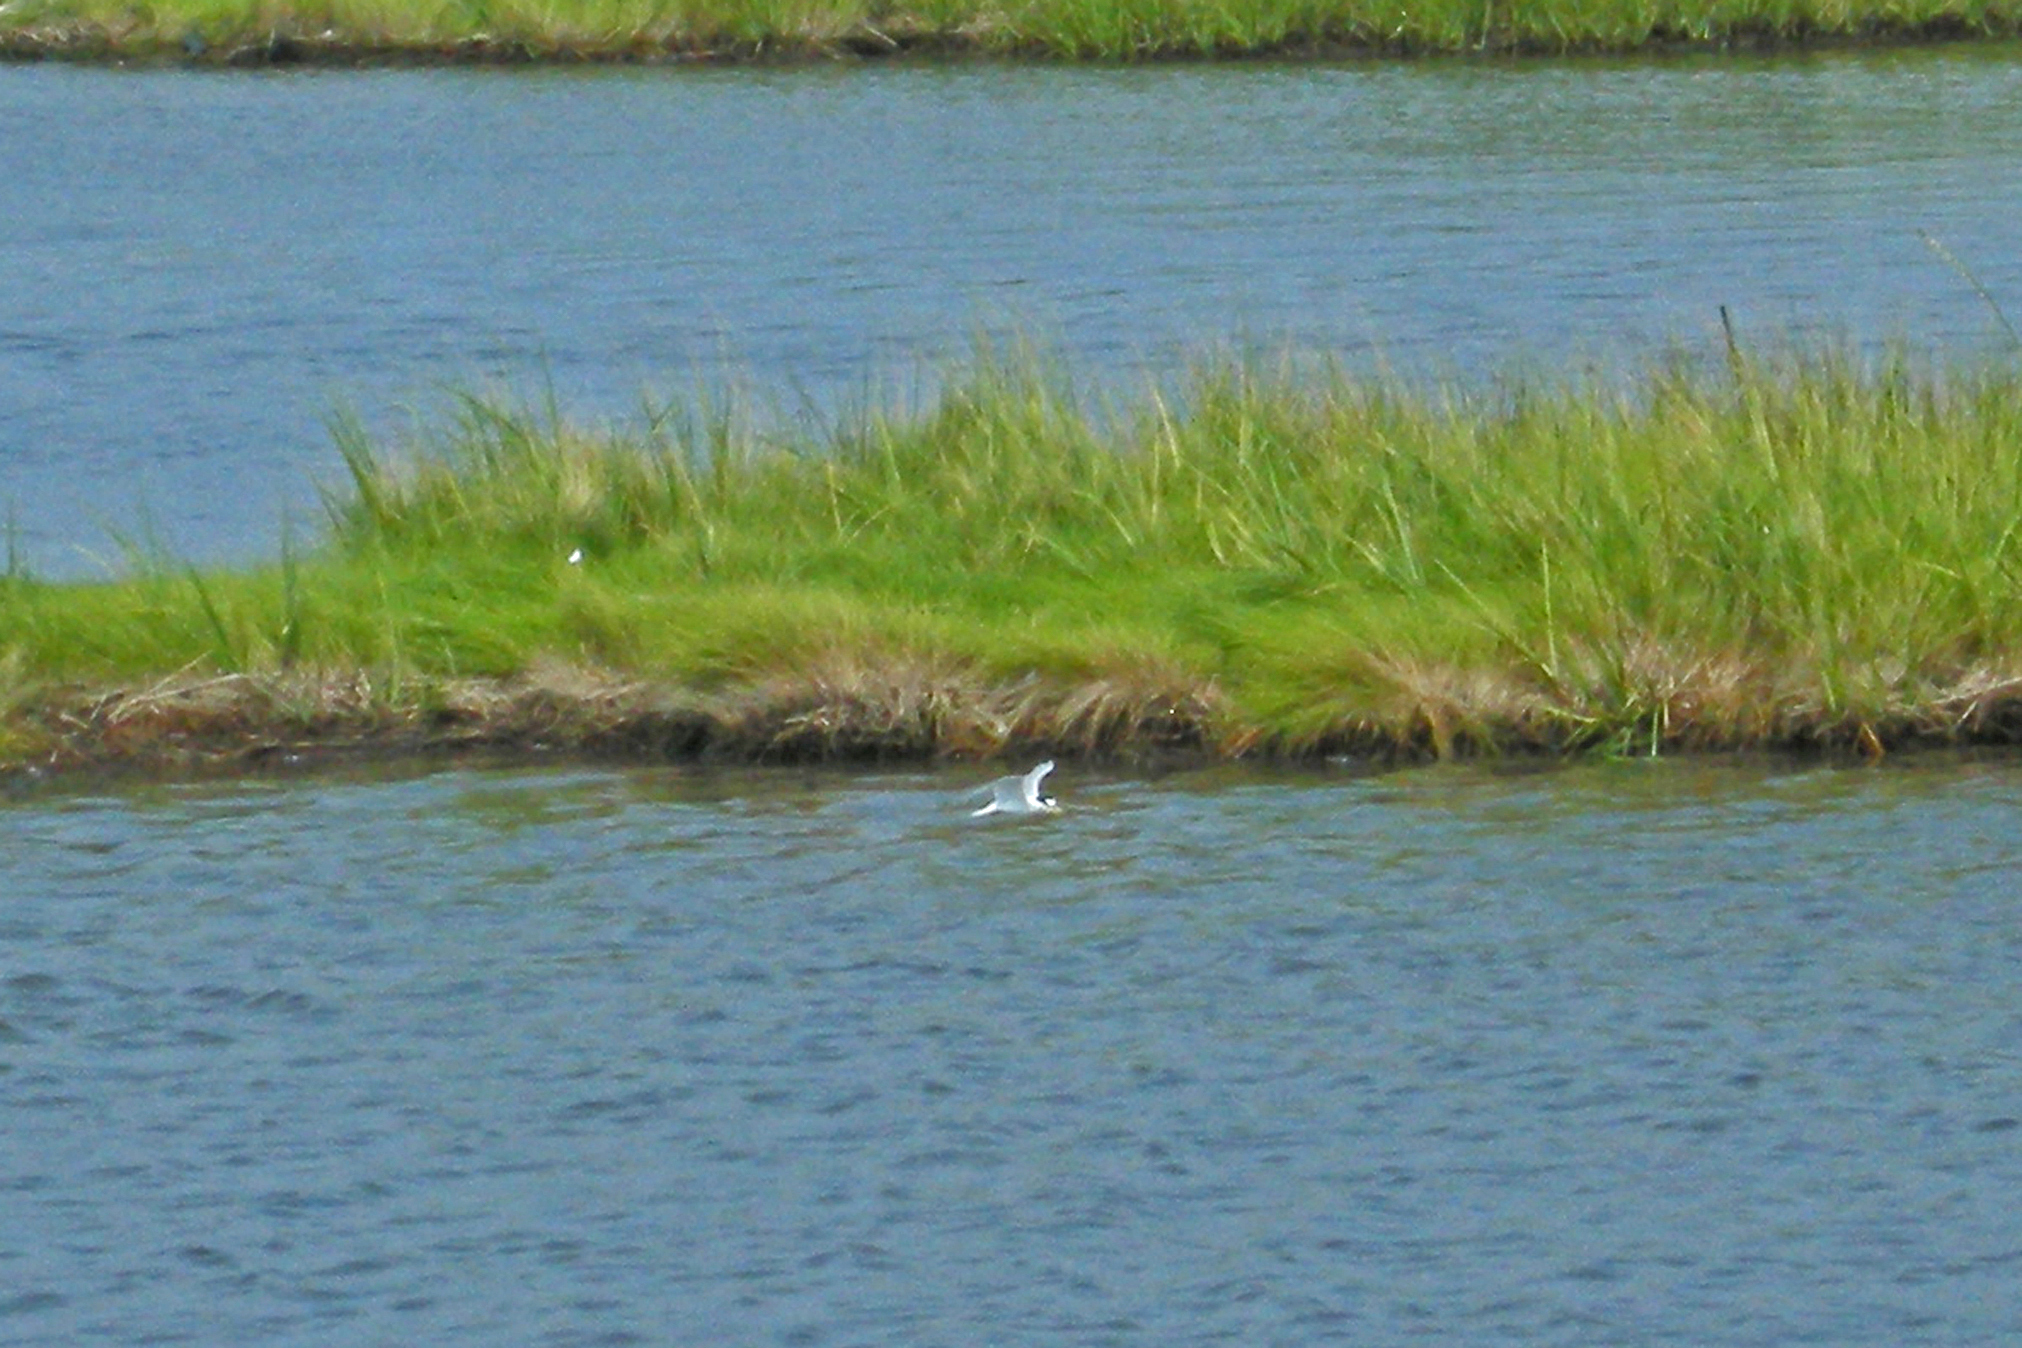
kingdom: Animalia
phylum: Chordata
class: Aves
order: Charadriiformes
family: Laridae
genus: Sternula
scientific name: Sternula antillarum
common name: Least tern
